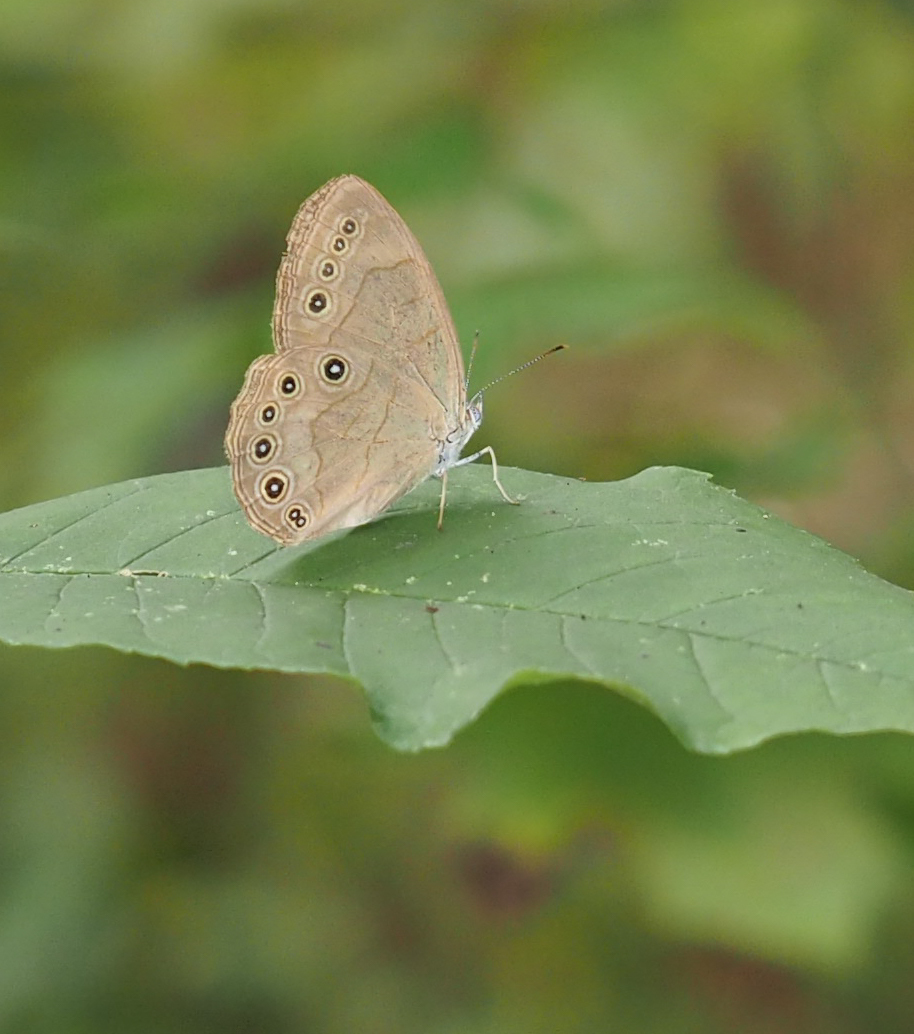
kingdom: Animalia
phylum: Arthropoda
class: Insecta
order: Lepidoptera
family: Nymphalidae
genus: Lethe
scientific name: Lethe eurydice
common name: Eyed brown
